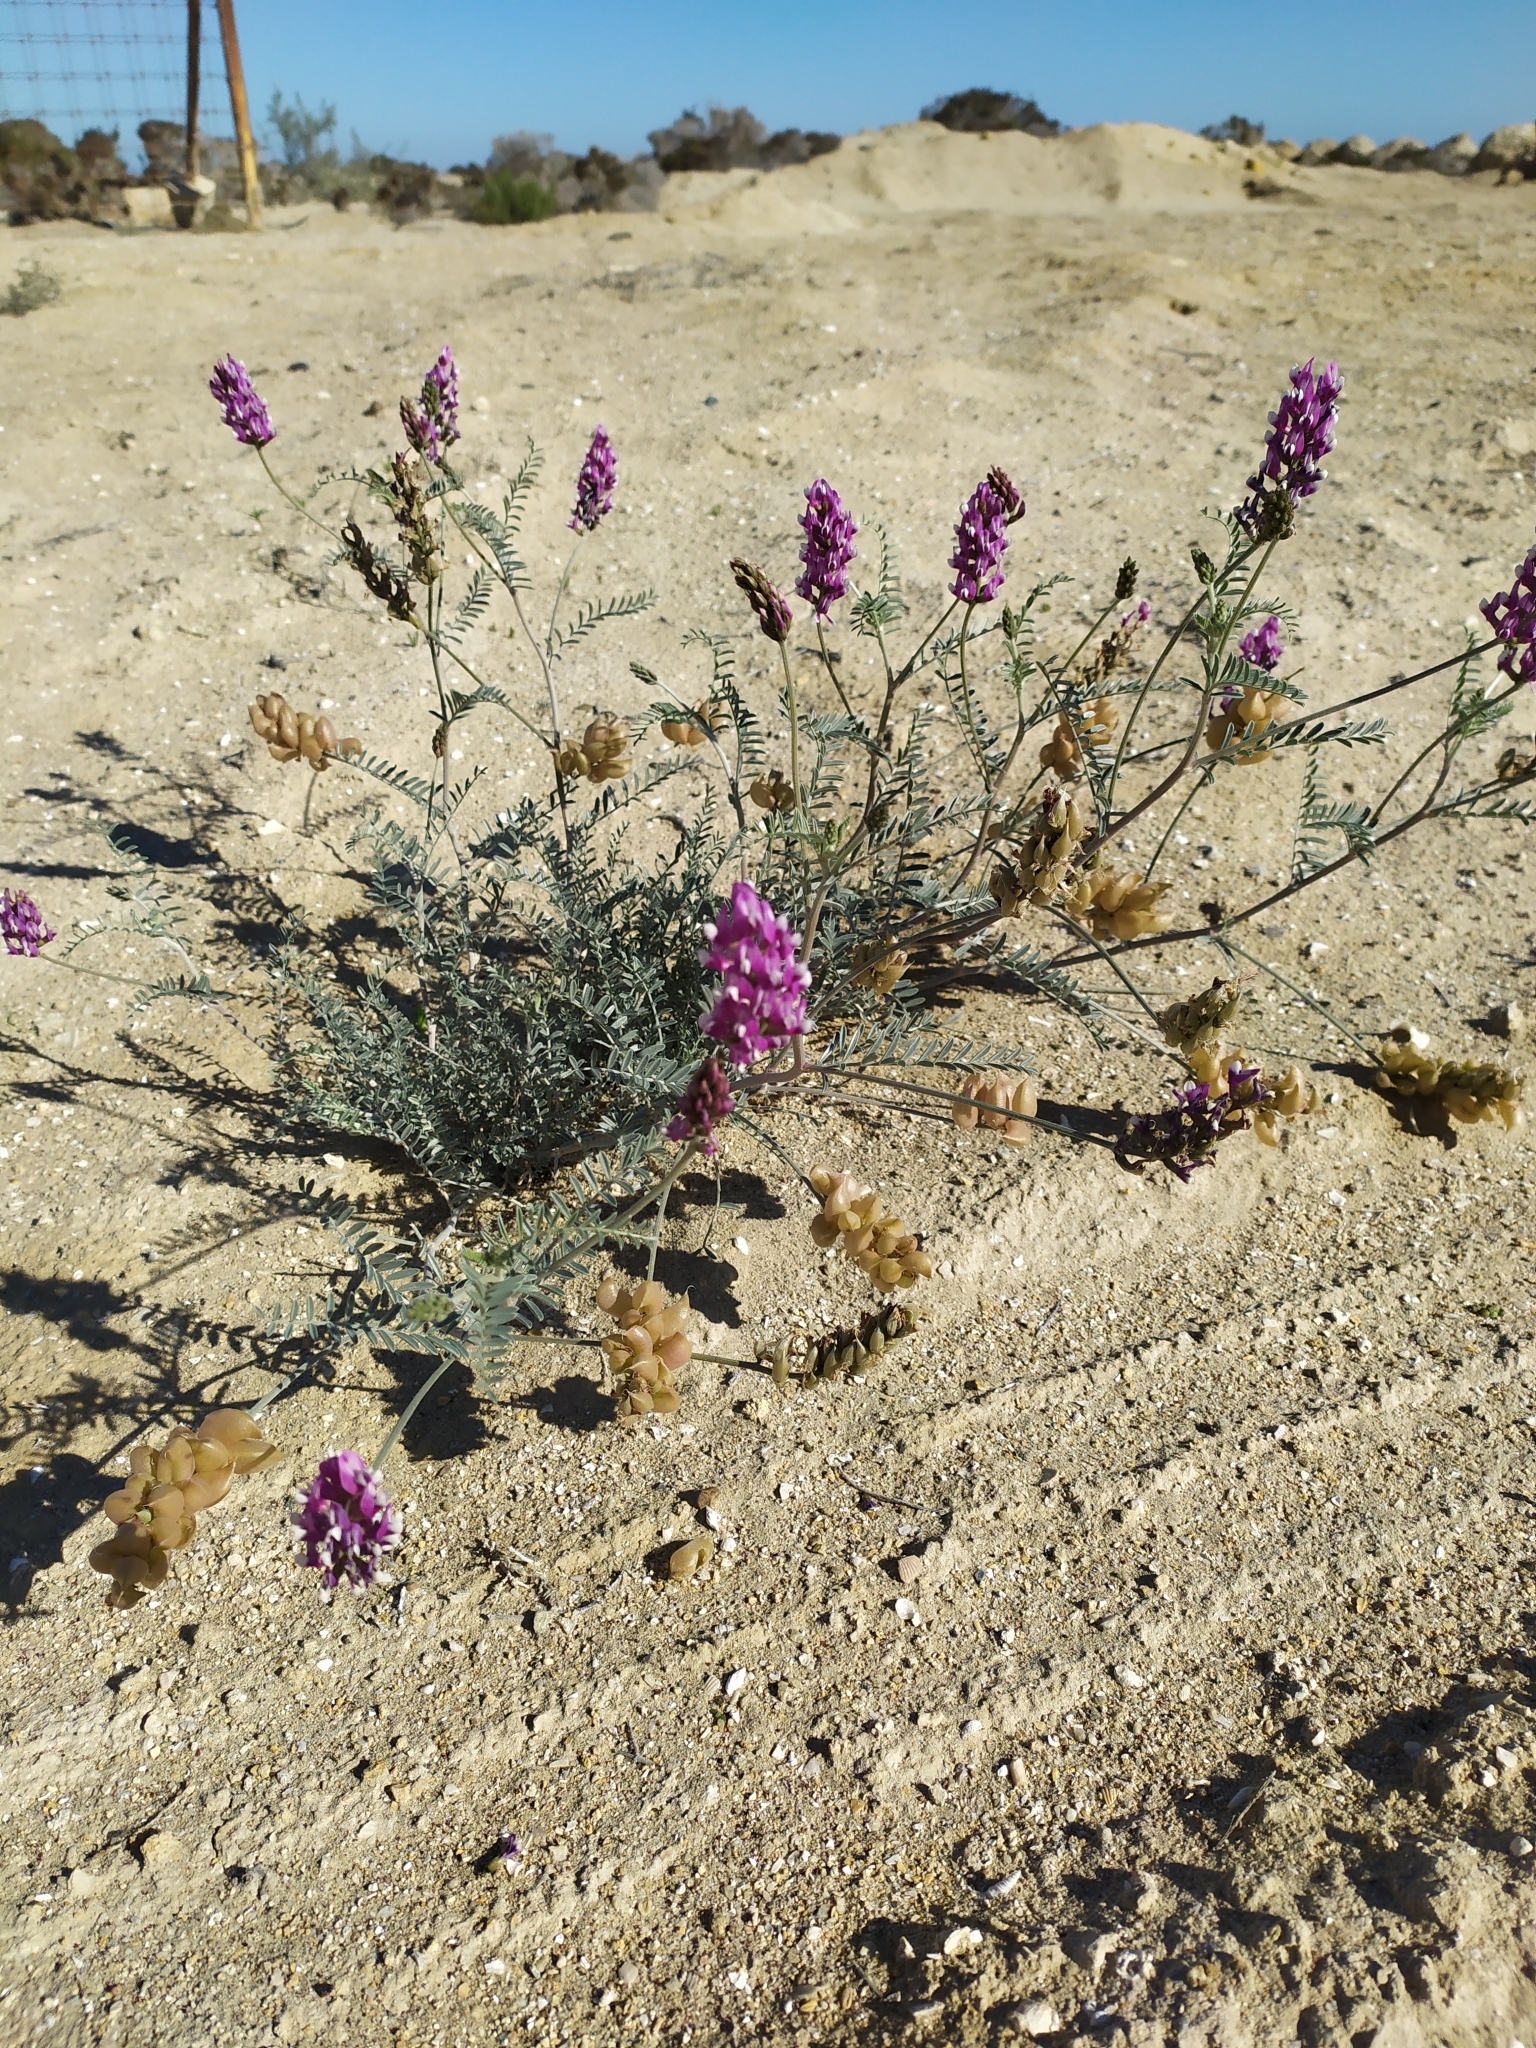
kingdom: Plantae
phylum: Tracheophyta
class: Magnoliopsida
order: Fabales
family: Fabaceae
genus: Astragalus
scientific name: Astragalus magdalenae
